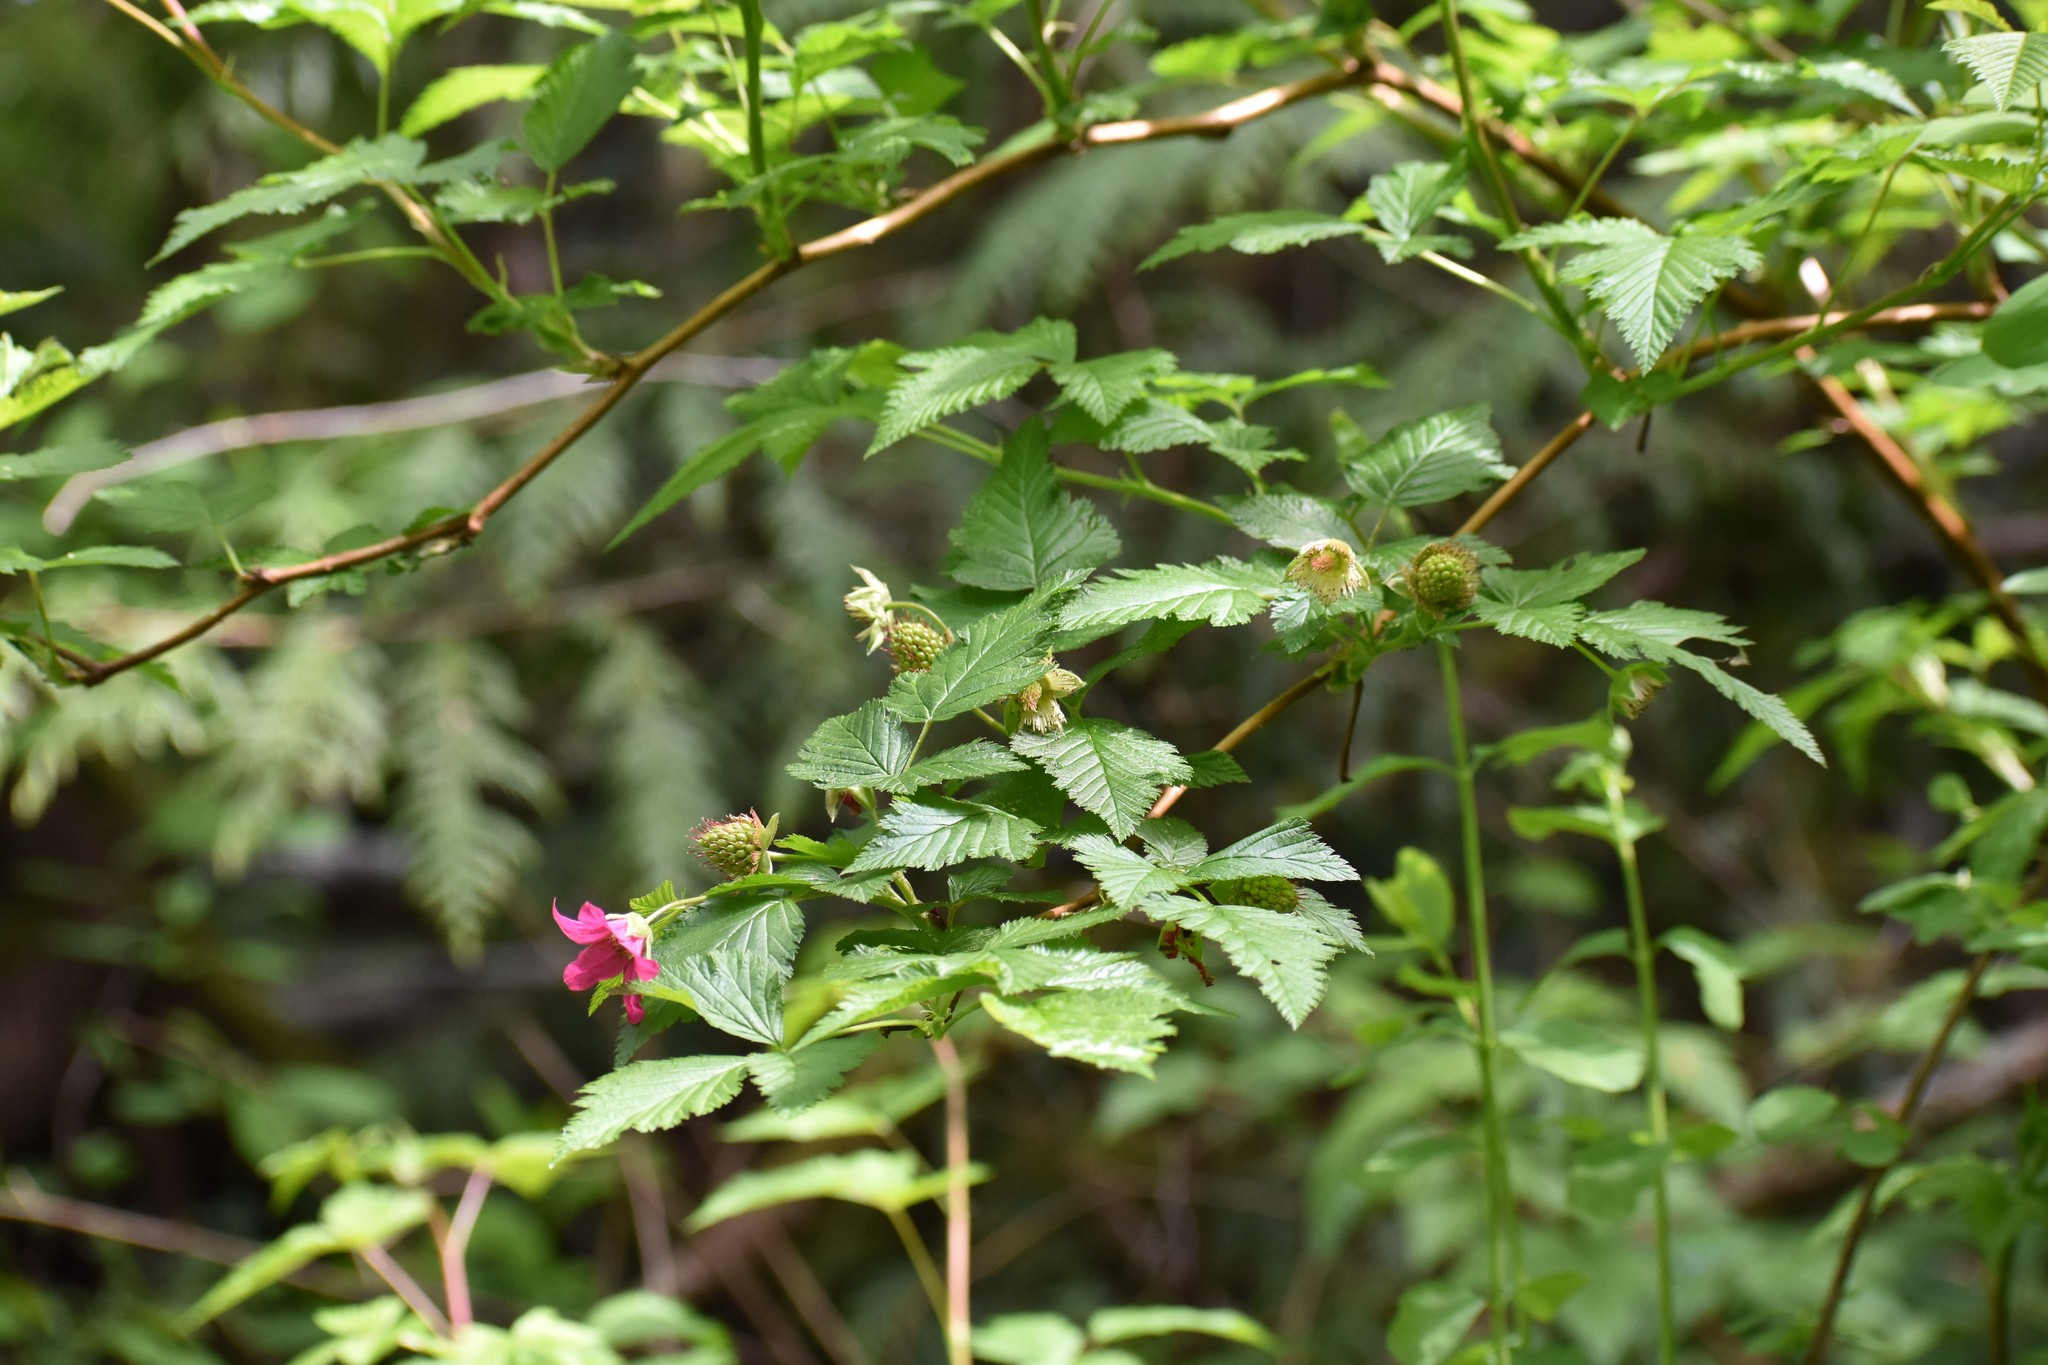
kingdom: Plantae
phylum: Tracheophyta
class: Magnoliopsida
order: Rosales
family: Rosaceae
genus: Rubus
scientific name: Rubus spectabilis
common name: Salmonberry
